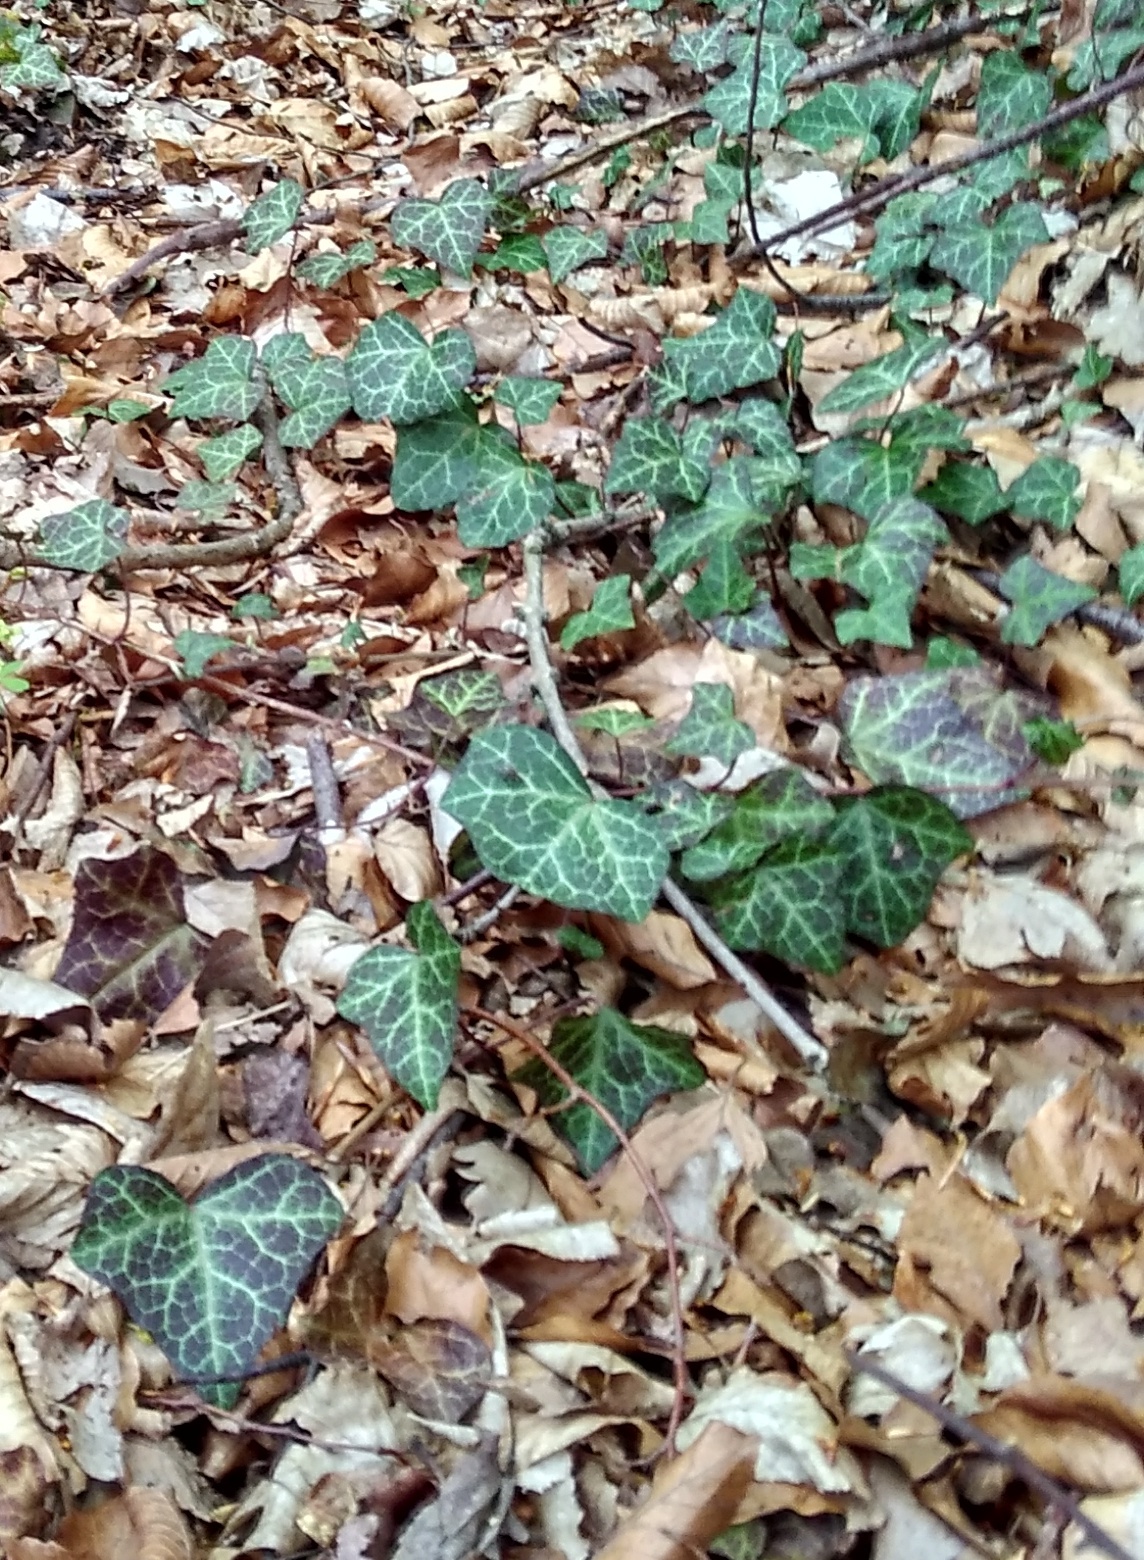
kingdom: Plantae
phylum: Tracheophyta
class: Magnoliopsida
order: Apiales
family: Araliaceae
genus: Hedera
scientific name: Hedera helix
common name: Ivy
